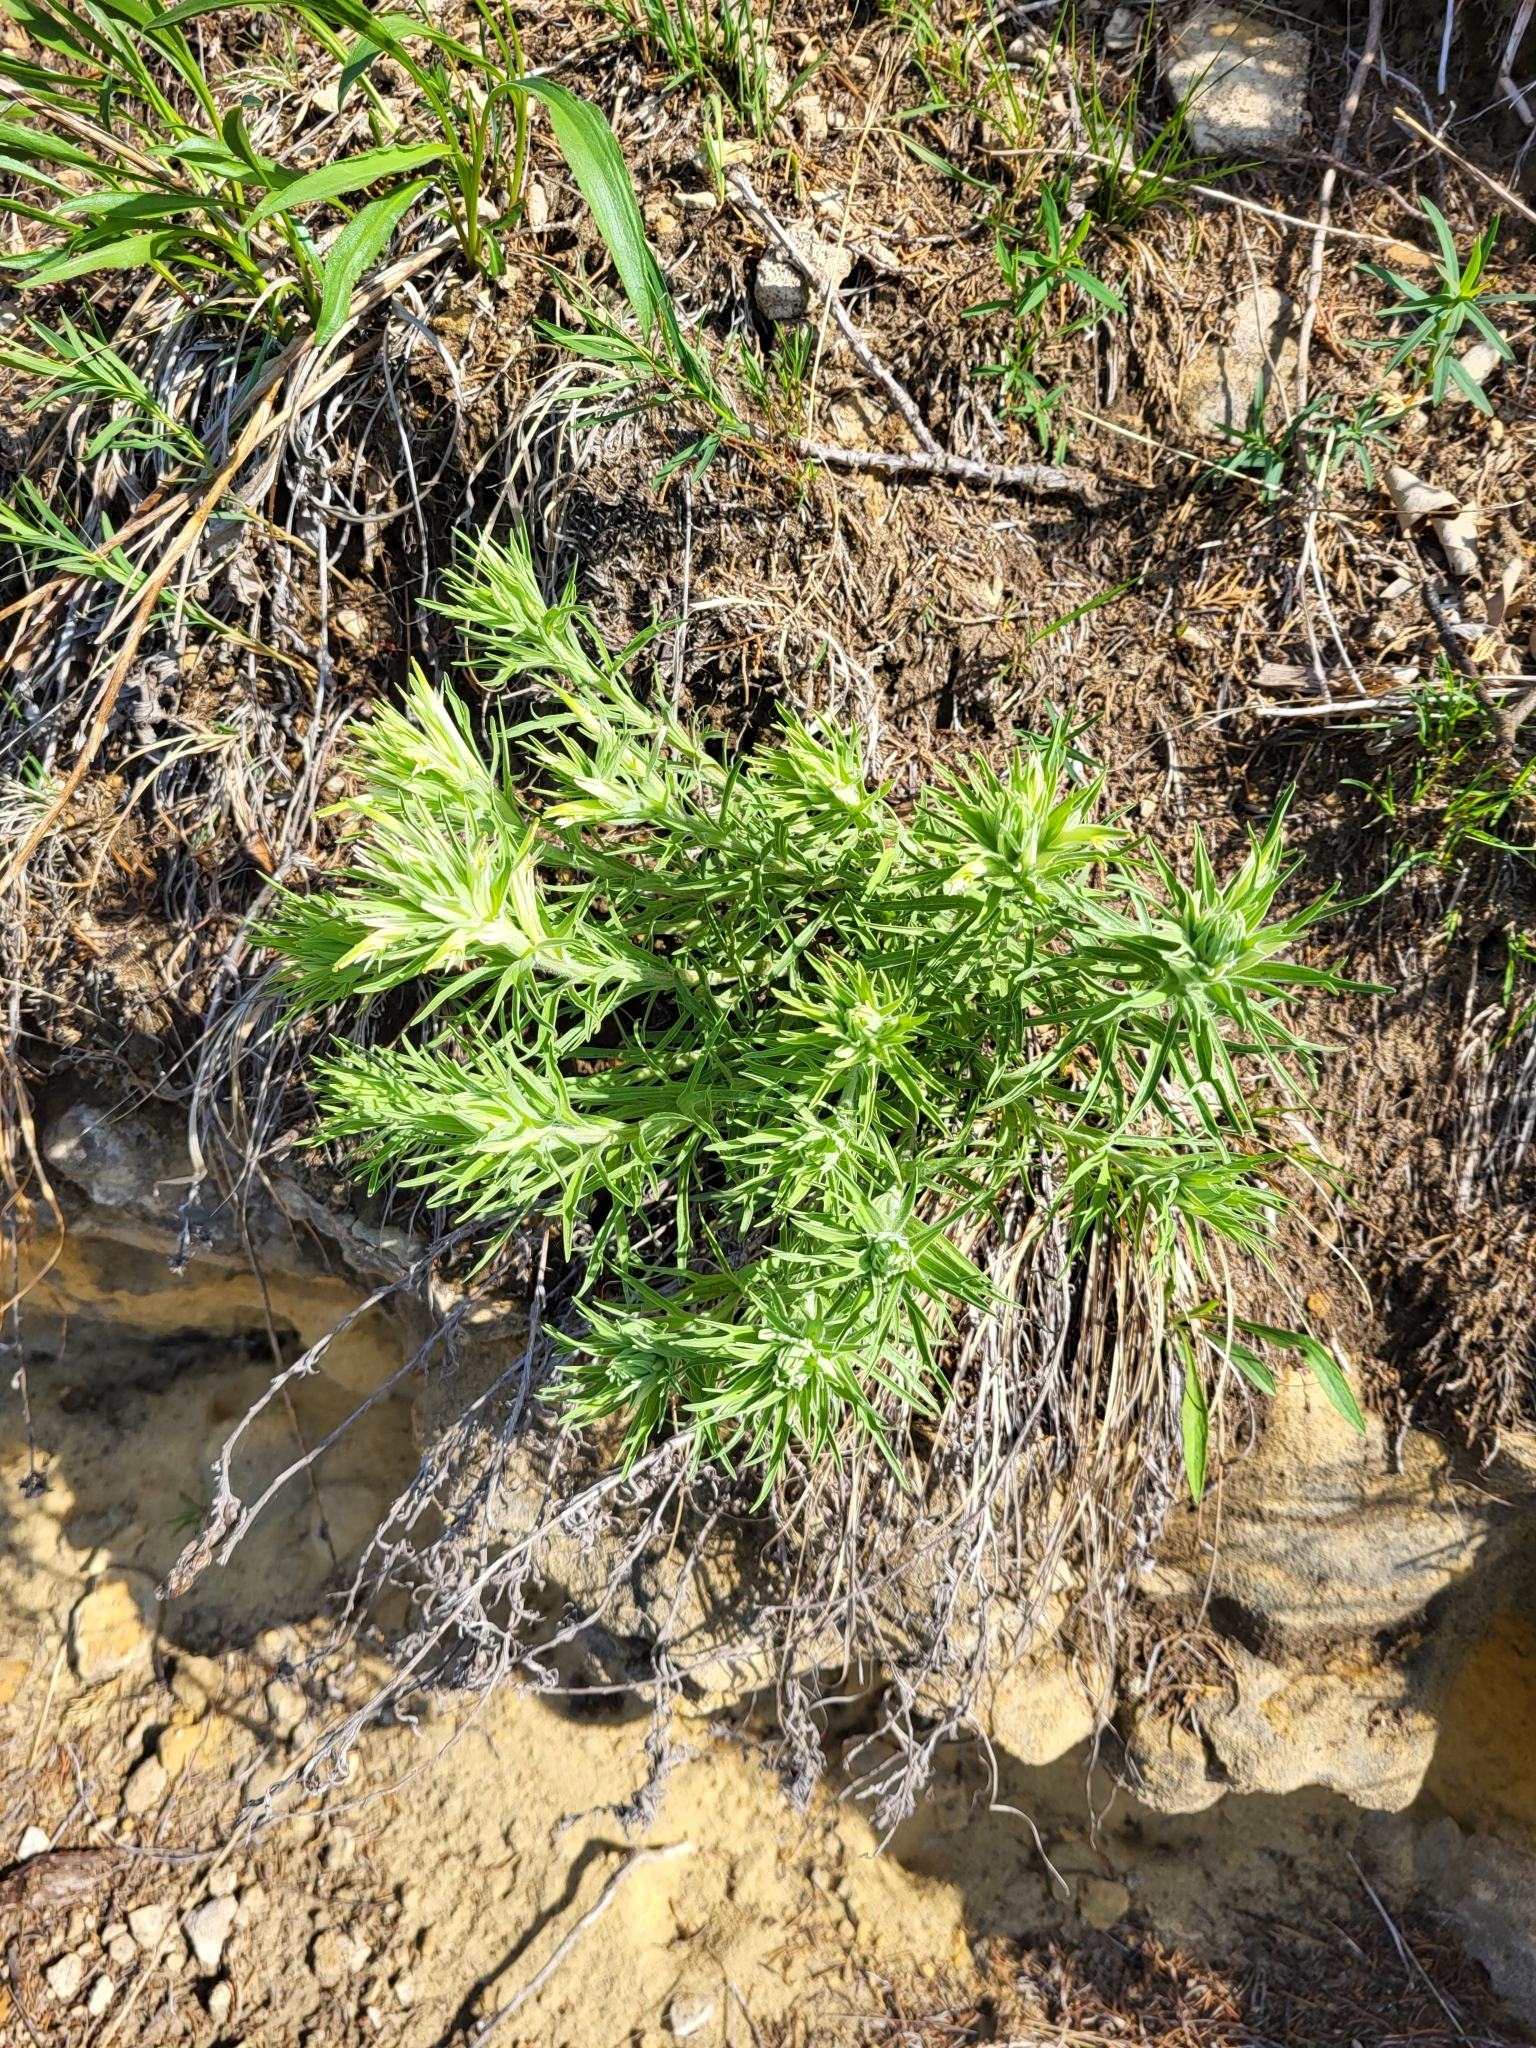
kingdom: Plantae
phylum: Tracheophyta
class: Magnoliopsida
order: Lamiales
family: Orobanchaceae
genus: Castilleja
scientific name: Castilleja sessiliflora
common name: Downy paintbrush
